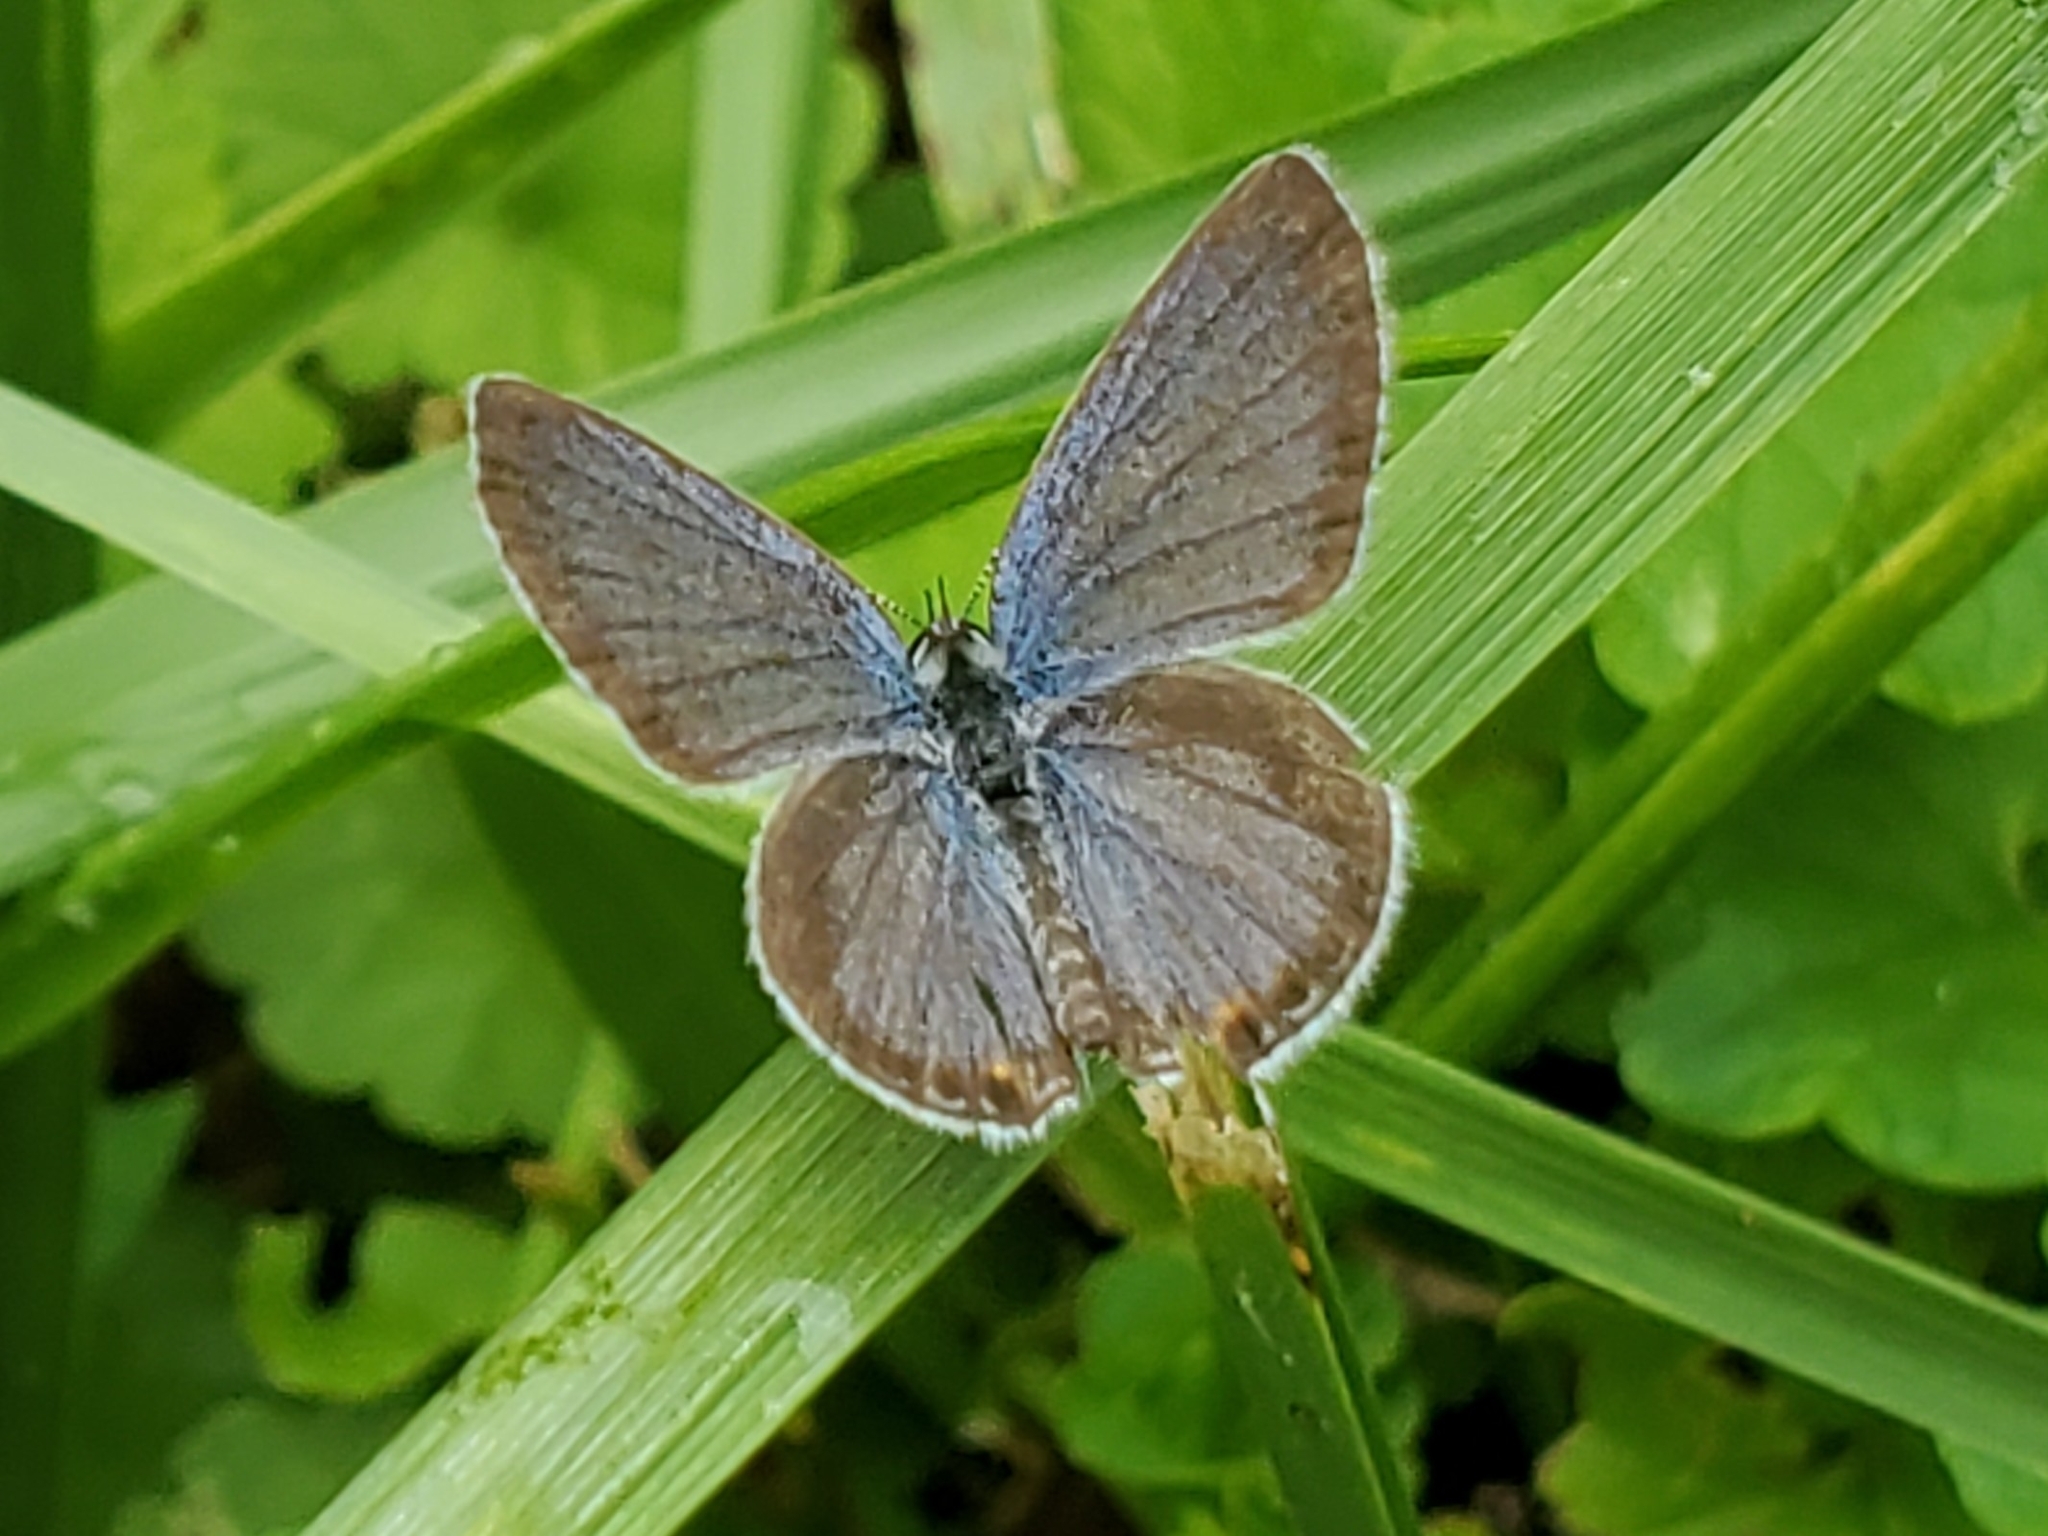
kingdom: Animalia
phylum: Arthropoda
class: Insecta
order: Lepidoptera
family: Lycaenidae
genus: Elkalyce
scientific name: Elkalyce comyntas
